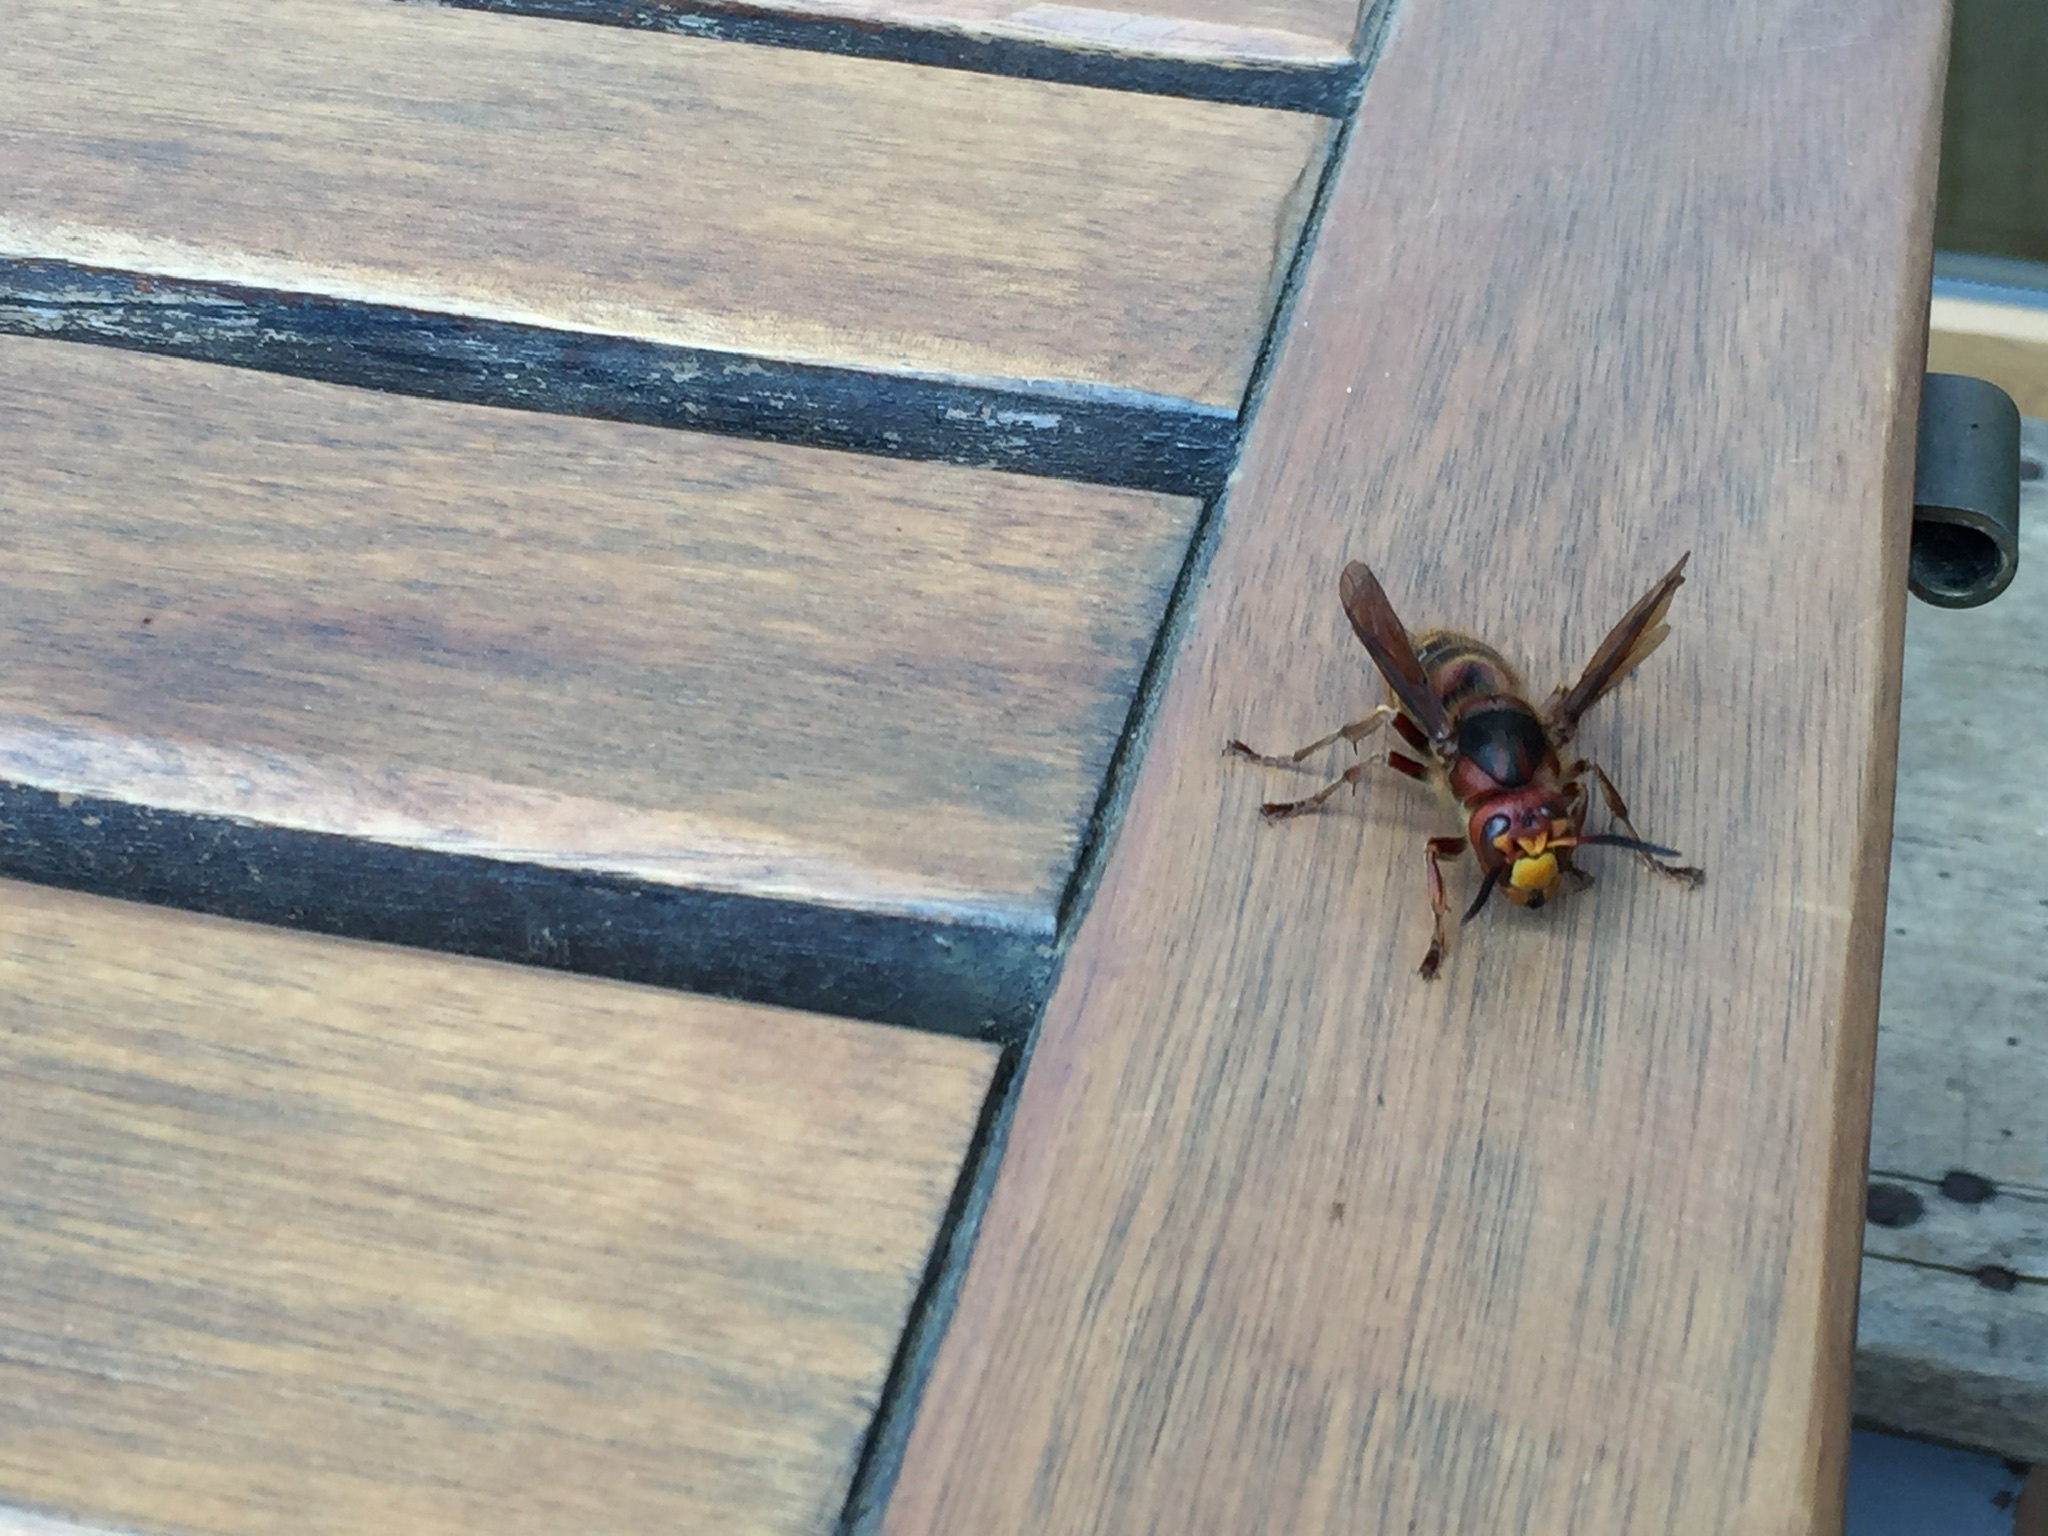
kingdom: Animalia
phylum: Arthropoda
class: Insecta
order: Hymenoptera
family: Vespidae
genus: Vespa
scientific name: Vespa crabro
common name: Hornet
